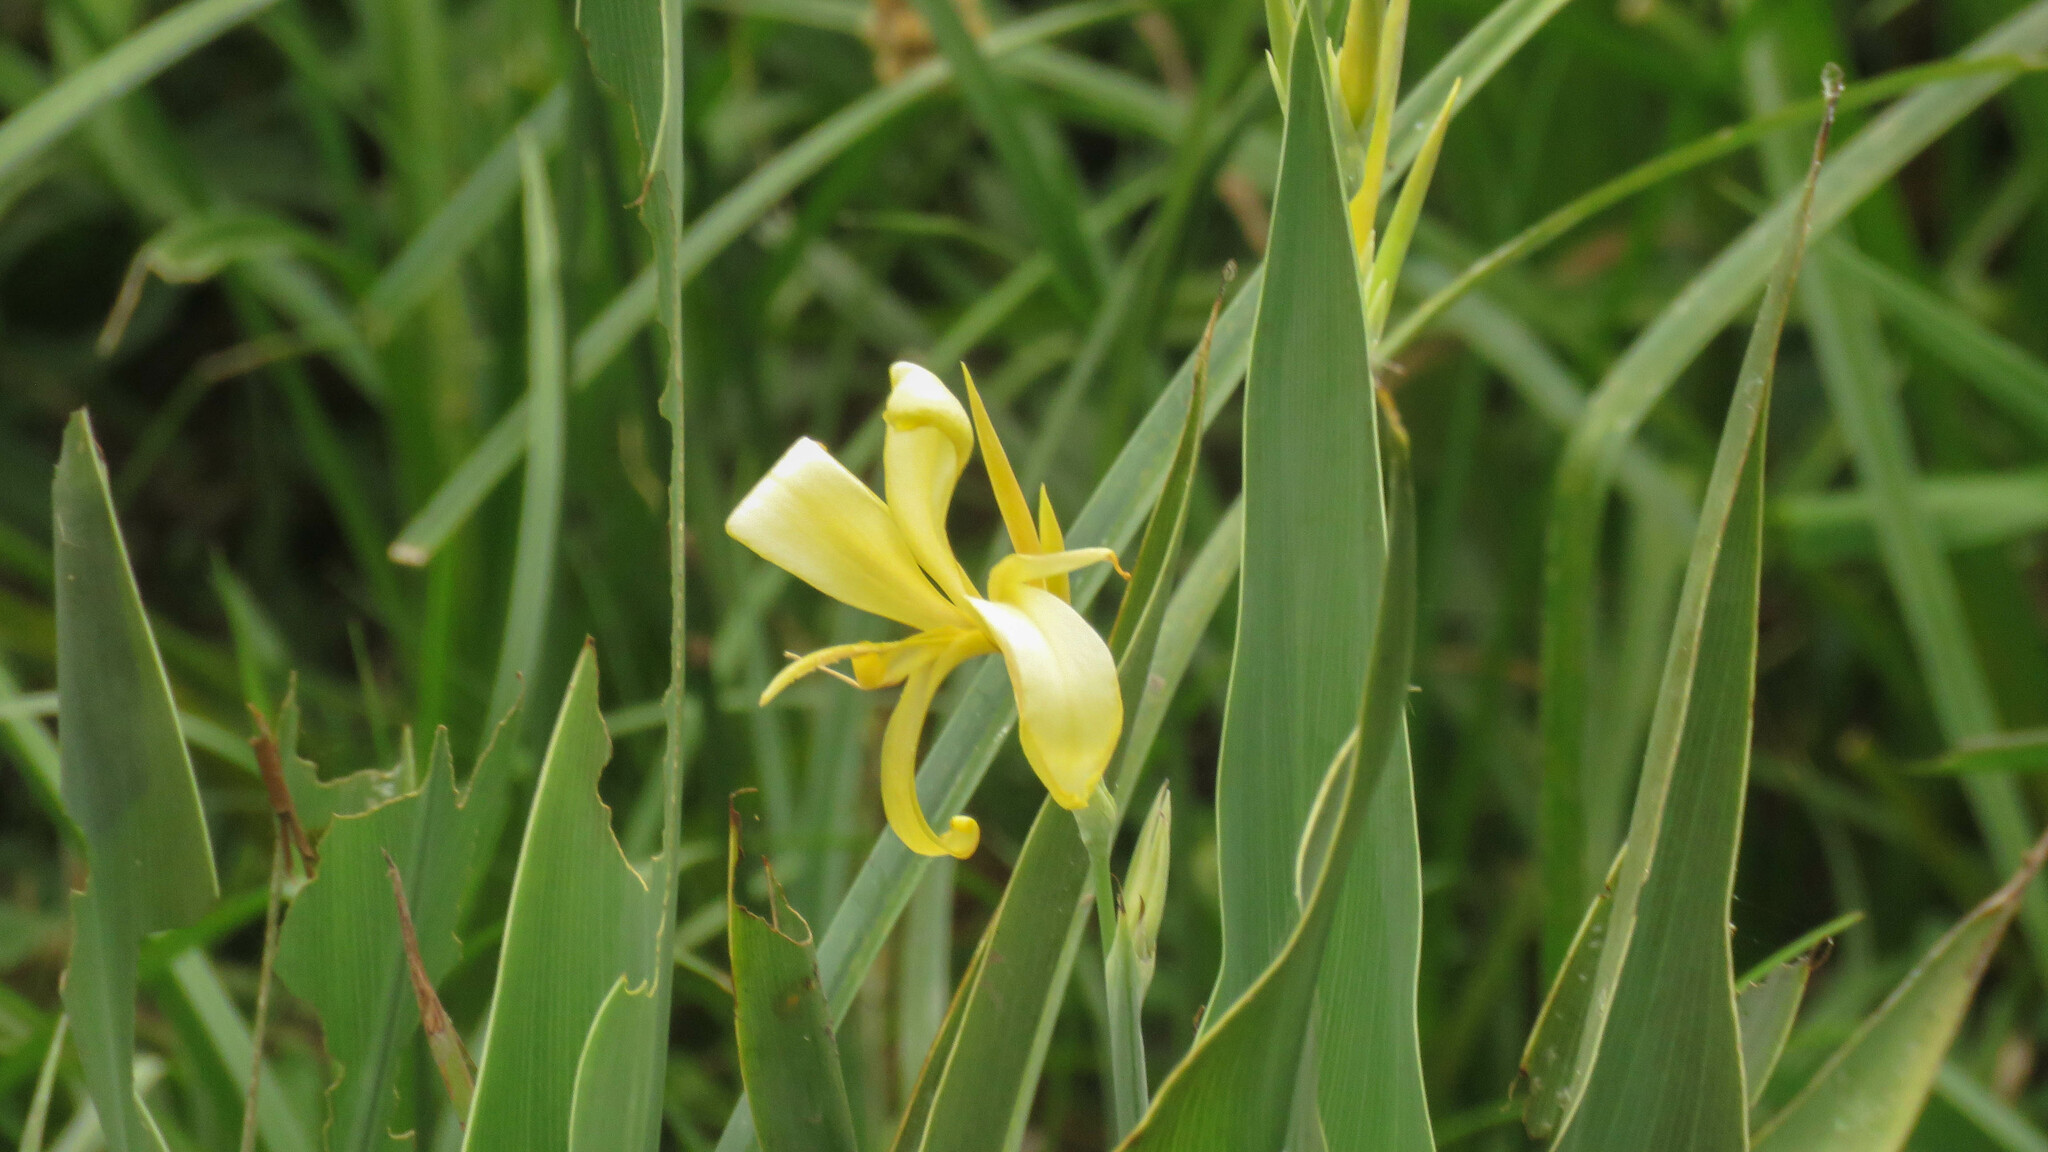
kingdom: Plantae
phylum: Tracheophyta
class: Liliopsida
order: Zingiberales
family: Cannaceae
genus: Canna
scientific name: Canna glauca
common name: Louisiana canna
